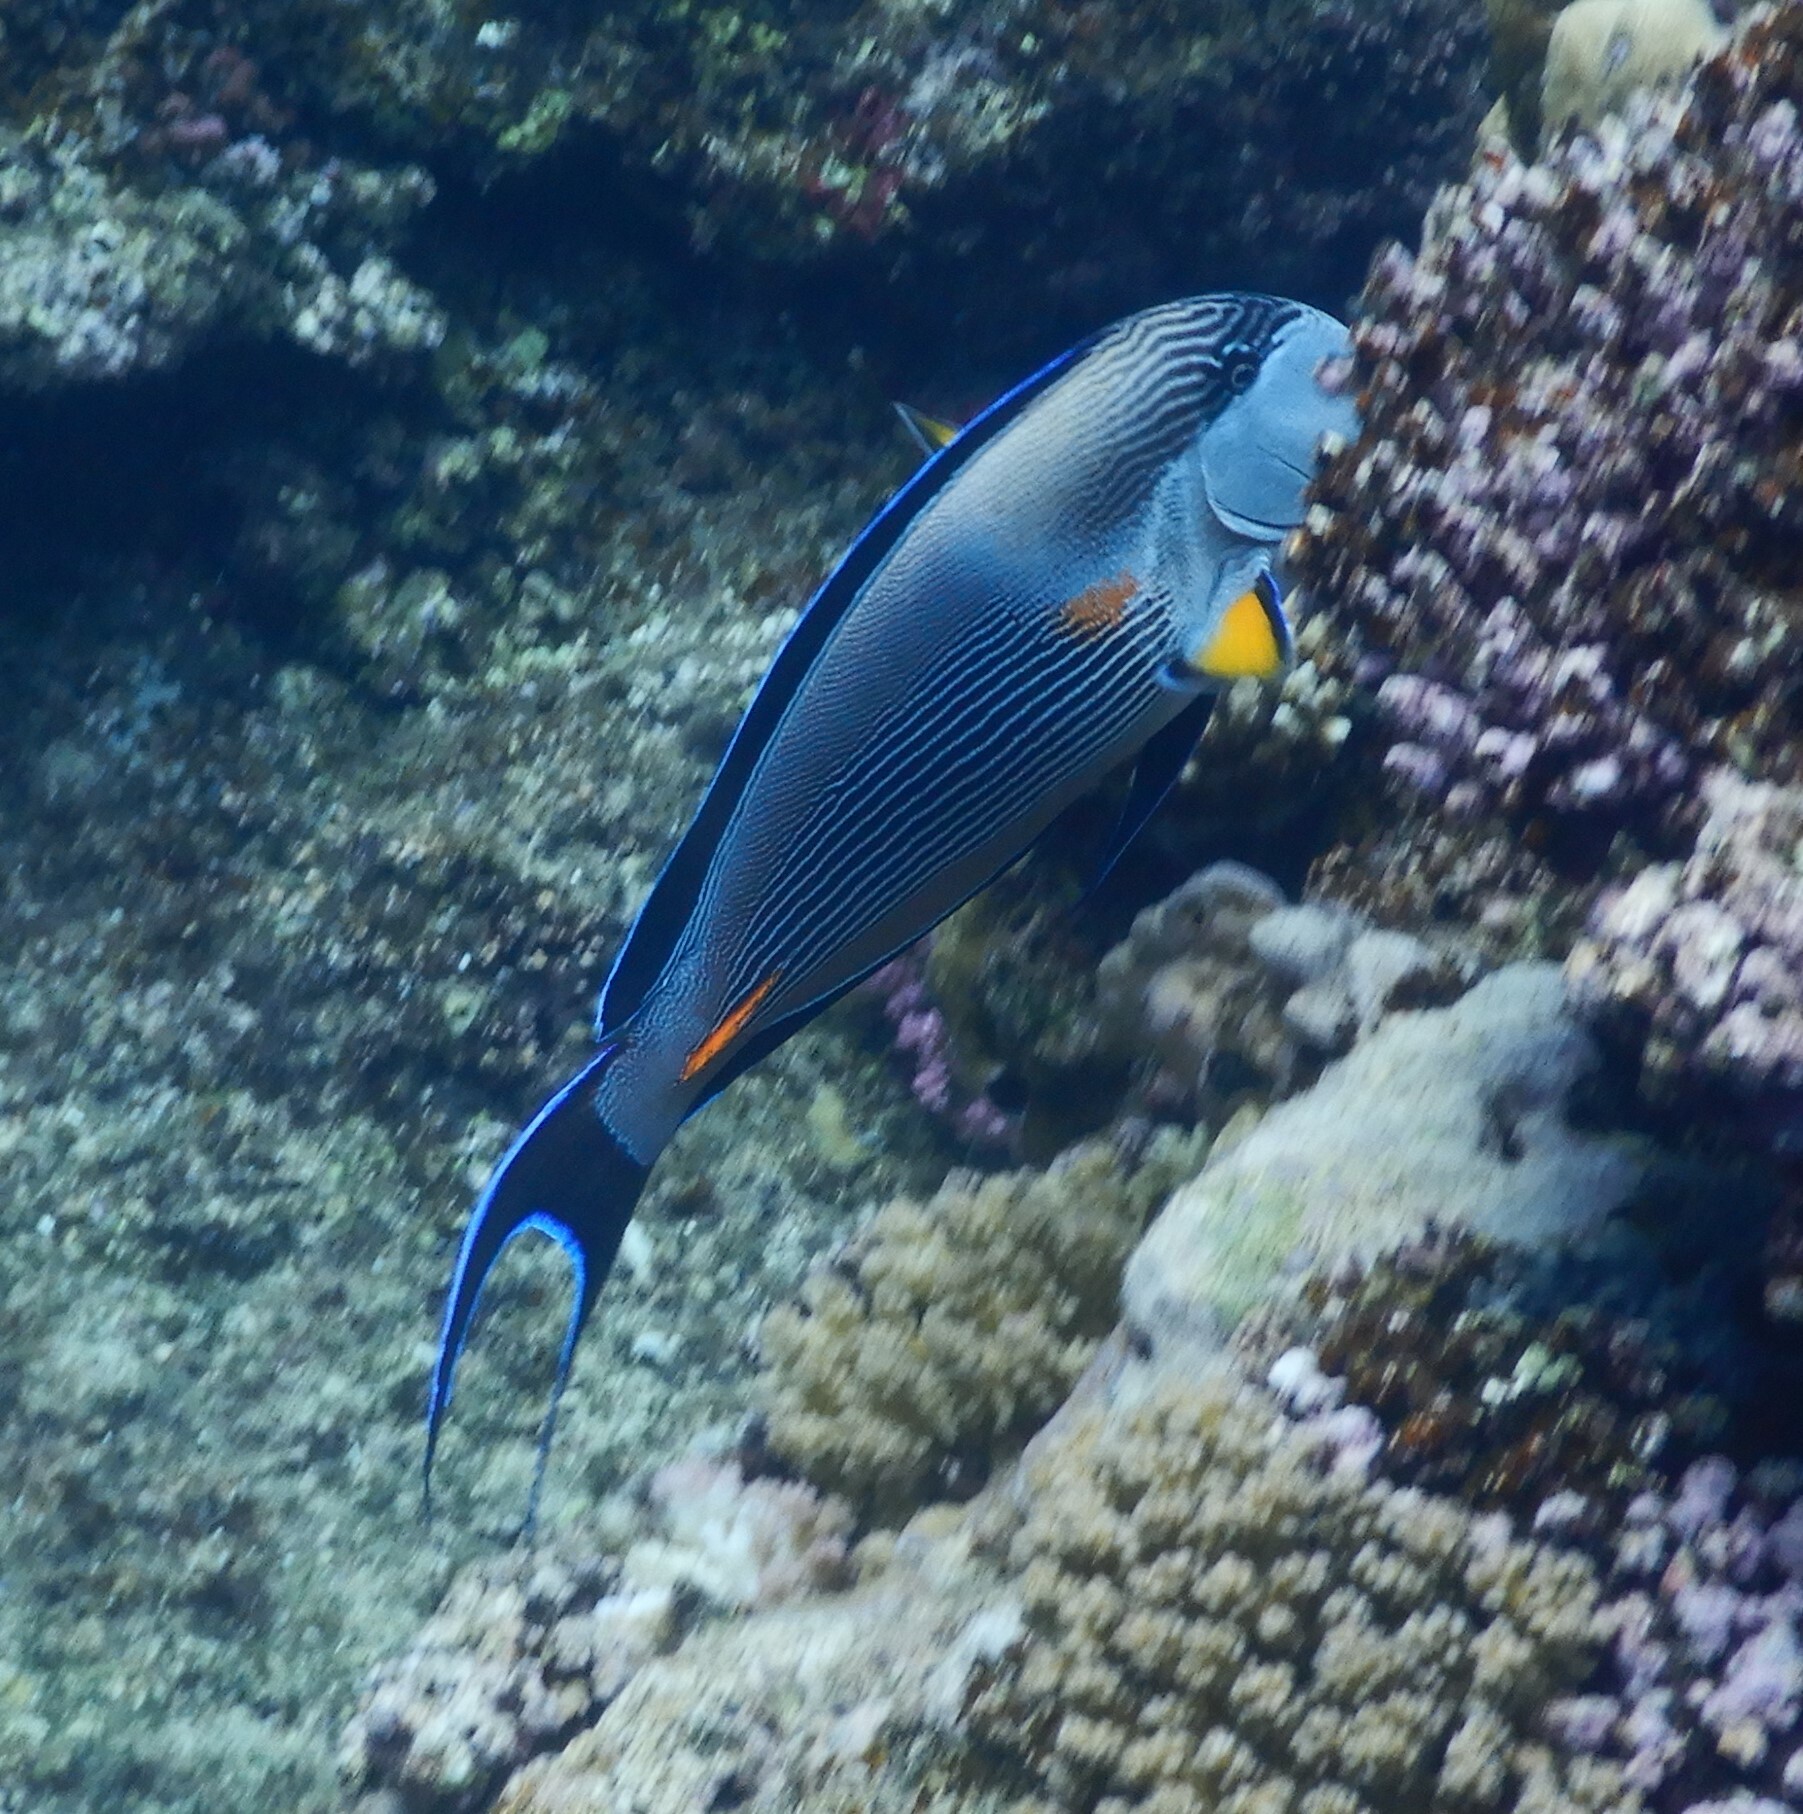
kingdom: Animalia
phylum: Chordata
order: Perciformes
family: Acanthuridae
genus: Acanthurus
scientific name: Acanthurus sohal
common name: Red sea surgeonfish
